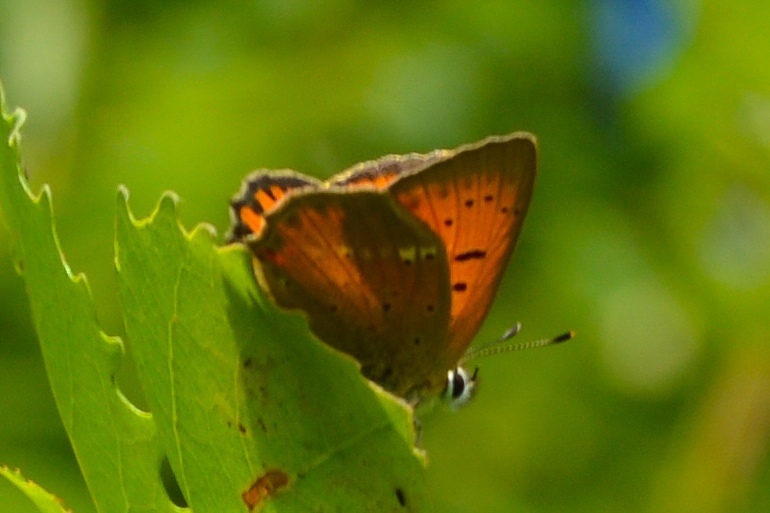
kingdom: Animalia
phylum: Arthropoda
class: Insecta
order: Lepidoptera
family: Lycaenidae
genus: Lycaena
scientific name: Lycaena virgaureae
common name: Scarce copper
